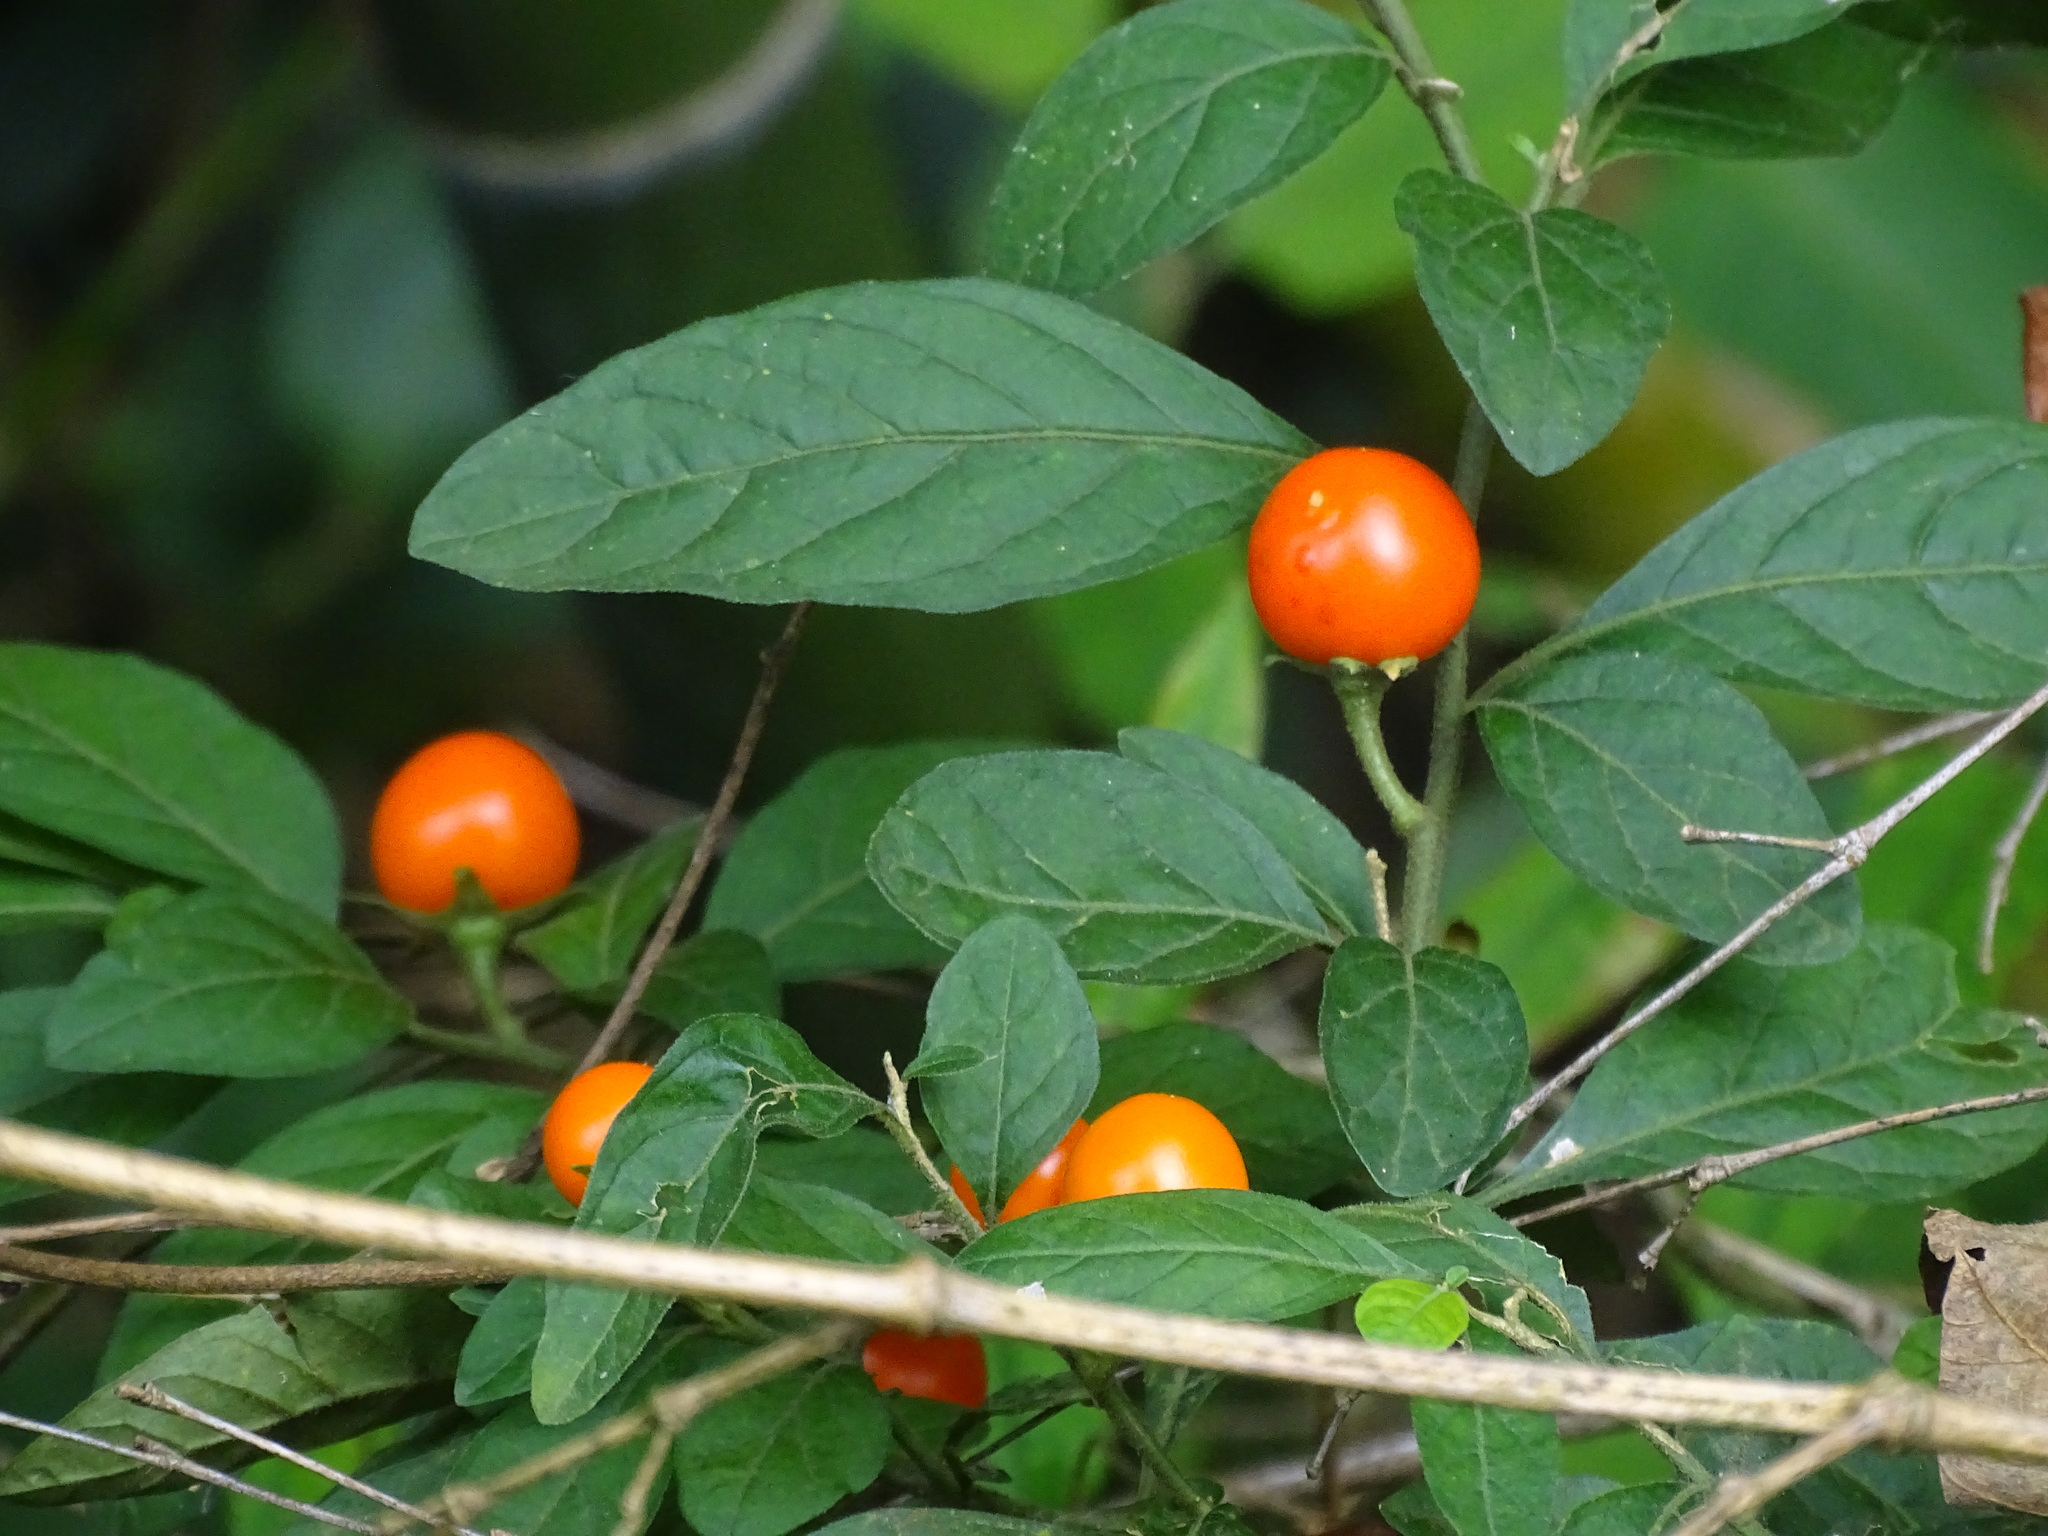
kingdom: Plantae
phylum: Tracheophyta
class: Magnoliopsida
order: Solanales
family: Solanaceae
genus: Solanum
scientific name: Solanum pseudocapsicum
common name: Jerusalem cherry
